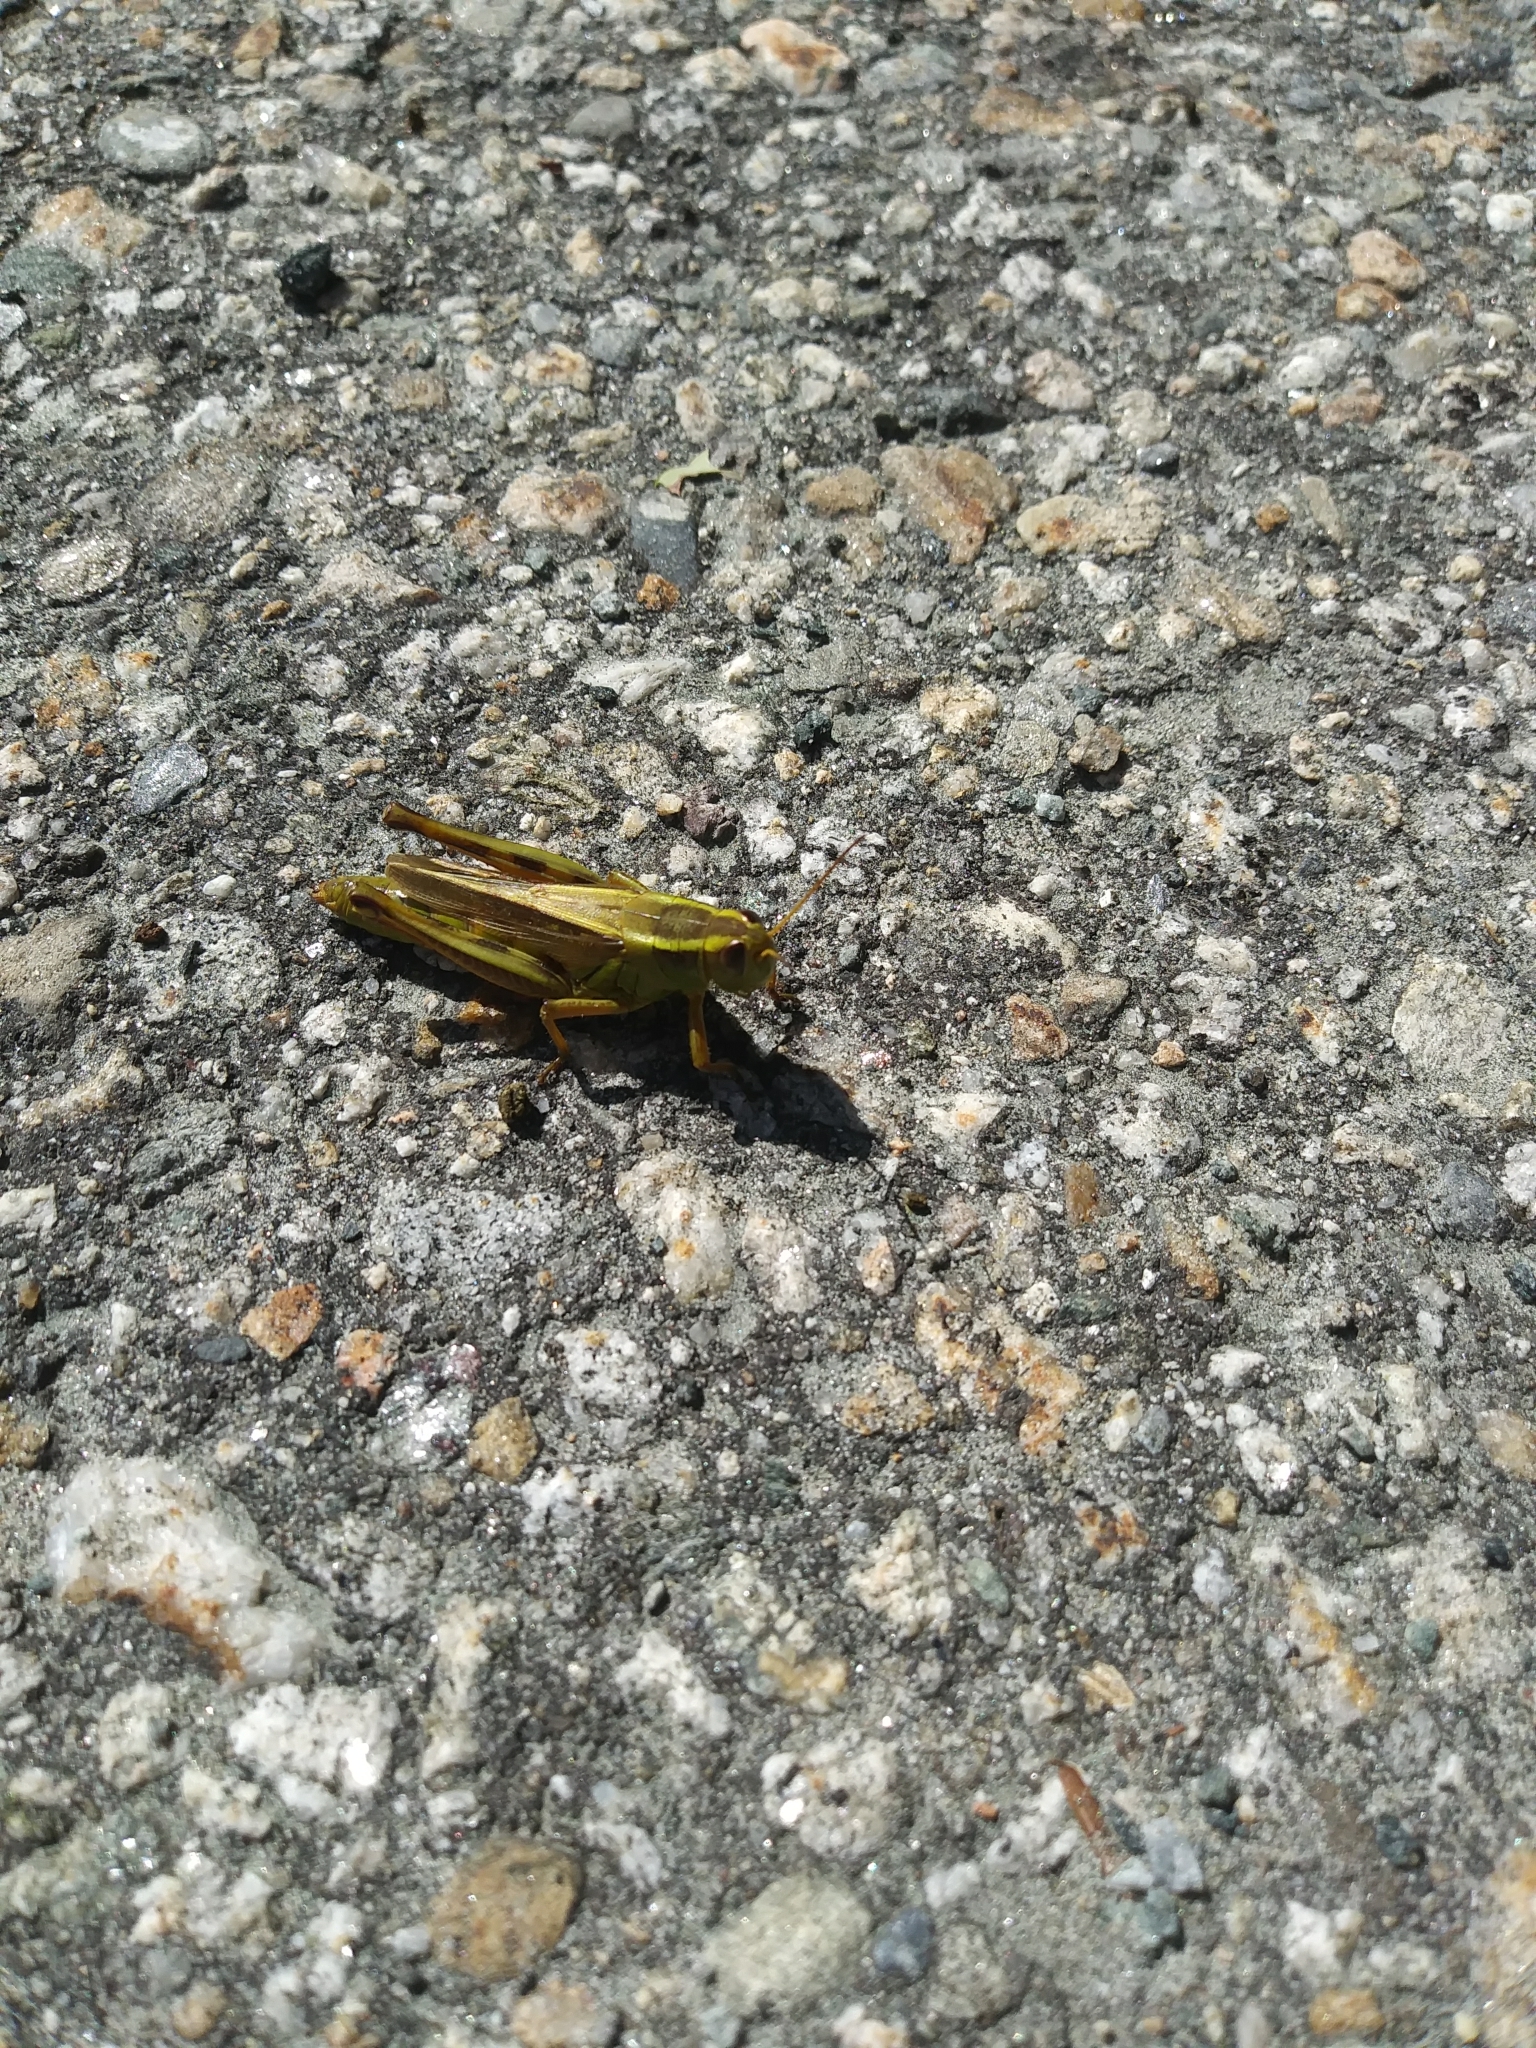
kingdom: Animalia
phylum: Arthropoda
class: Insecta
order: Orthoptera
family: Acrididae
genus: Melanoplus
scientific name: Melanoplus bivittatus
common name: Two-striped grasshopper
